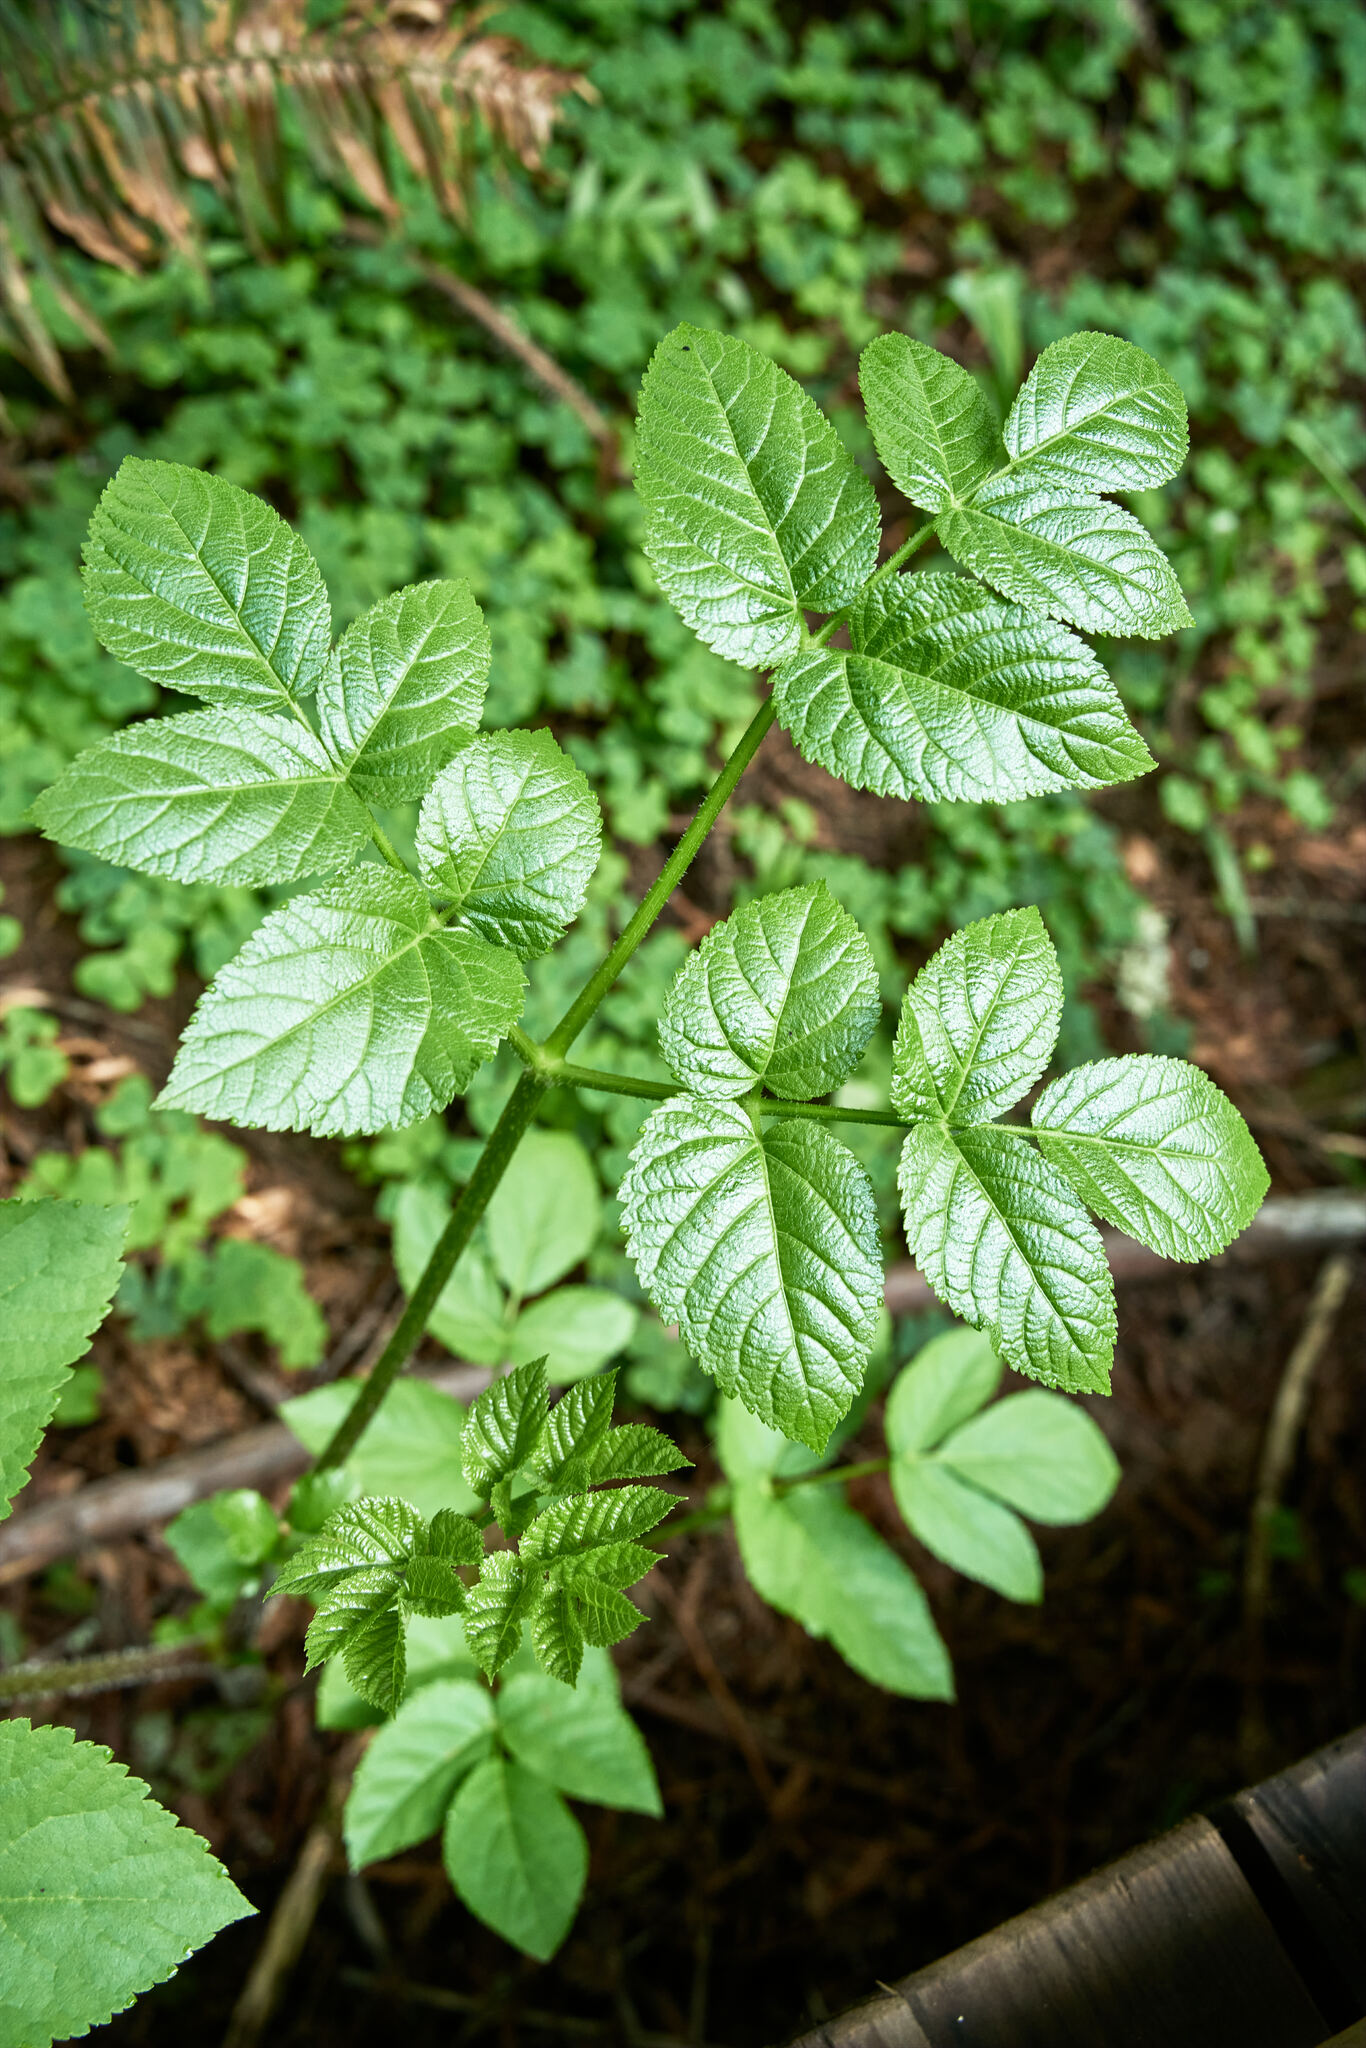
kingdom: Plantae
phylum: Tracheophyta
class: Magnoliopsida
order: Apiales
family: Araliaceae
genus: Aralia
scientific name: Aralia californica
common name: California-ginseng
